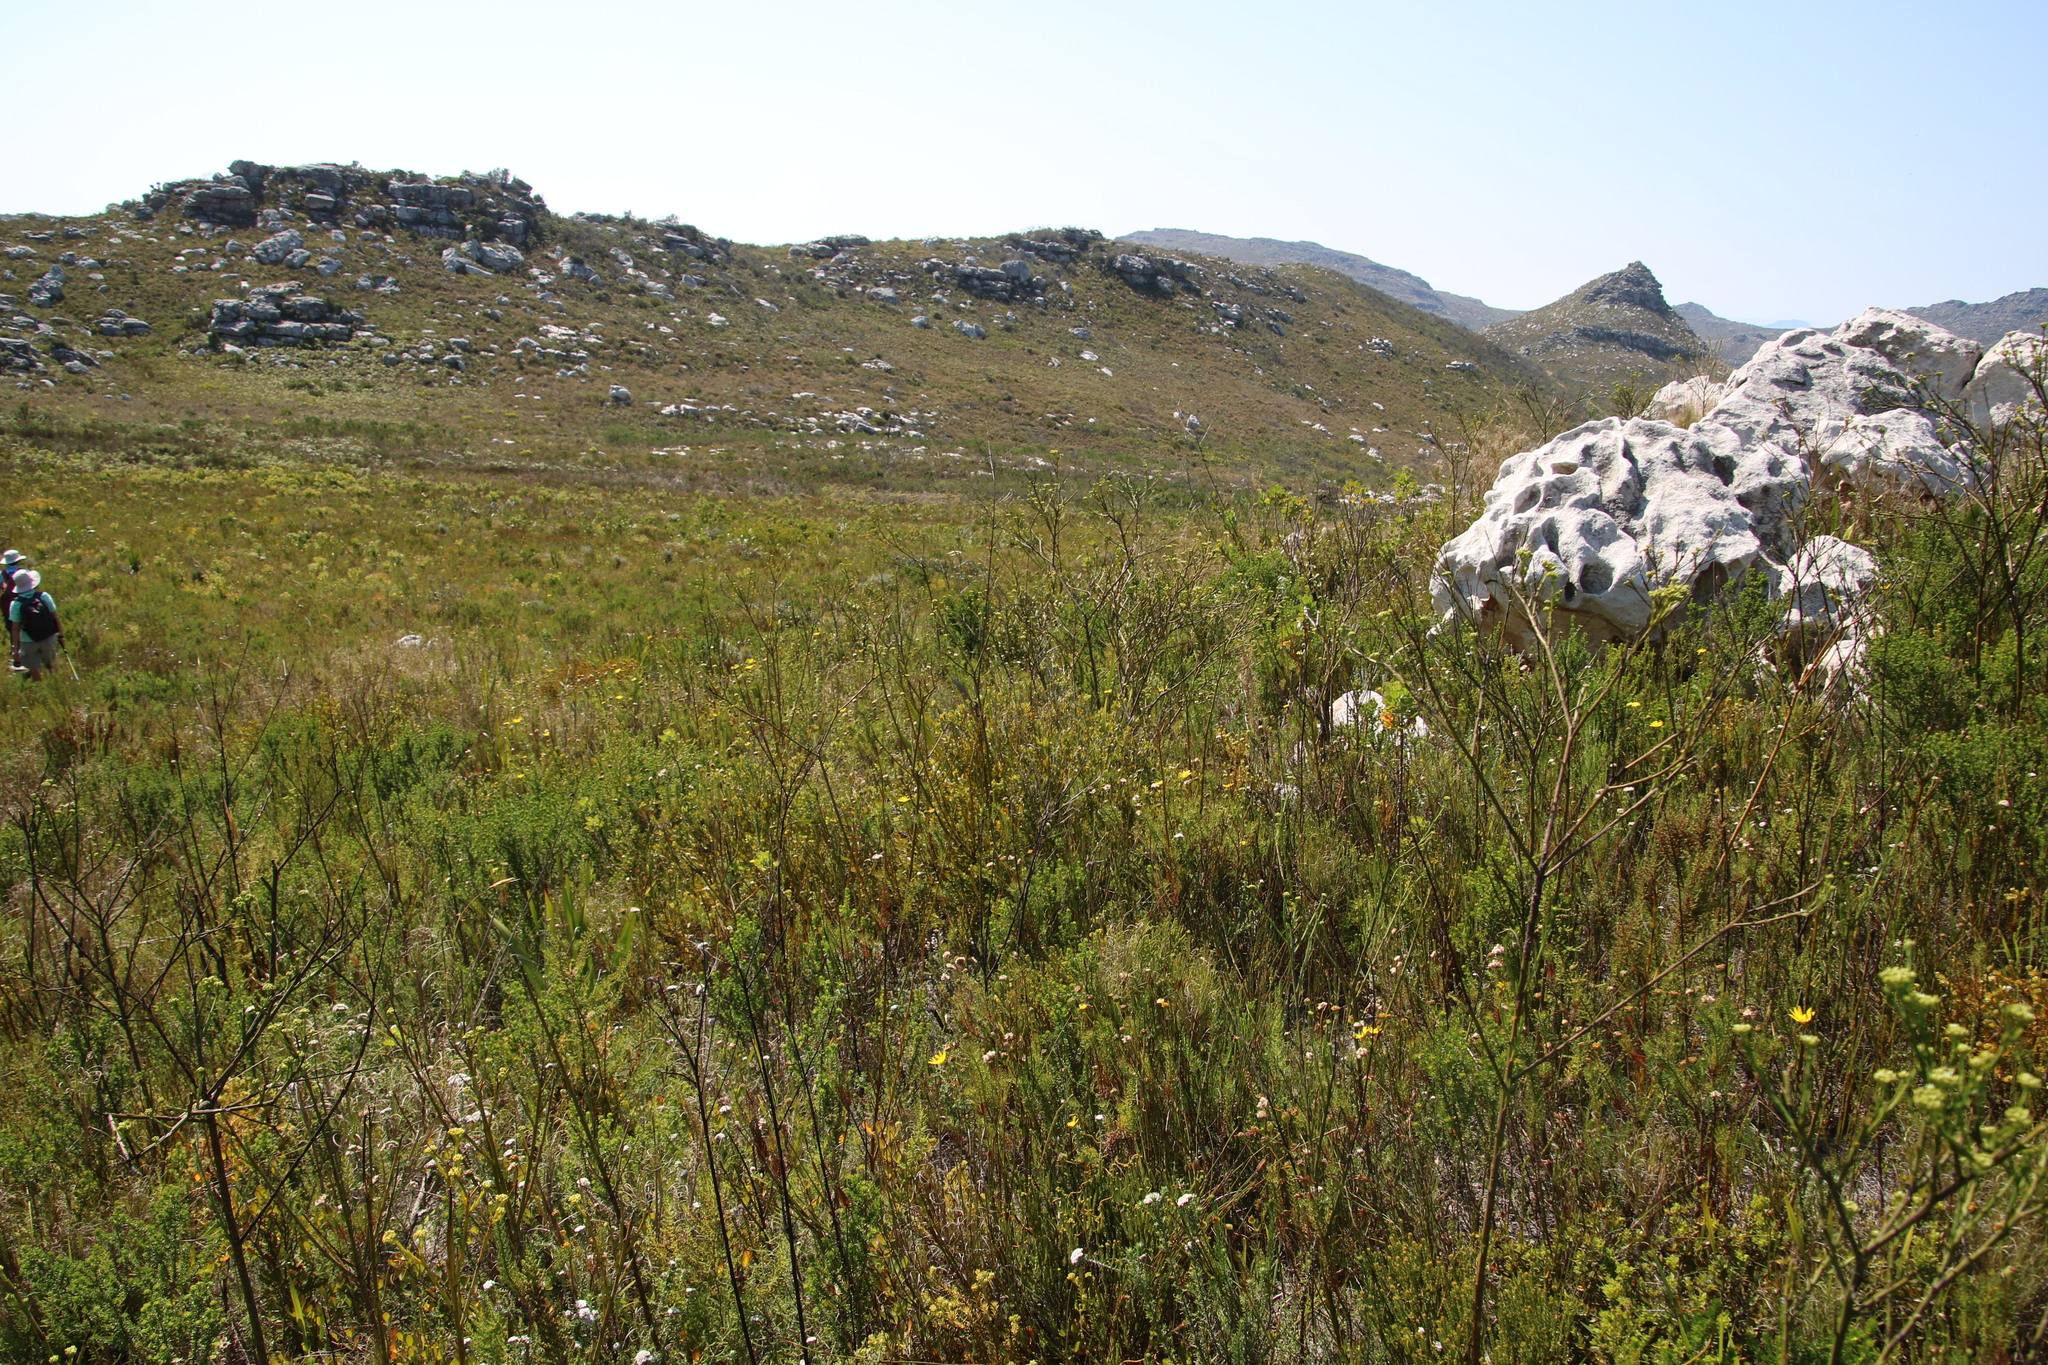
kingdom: Plantae
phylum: Tracheophyta
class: Magnoliopsida
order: Santalales
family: Thesiaceae
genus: Thesium
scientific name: Thesium strictum
